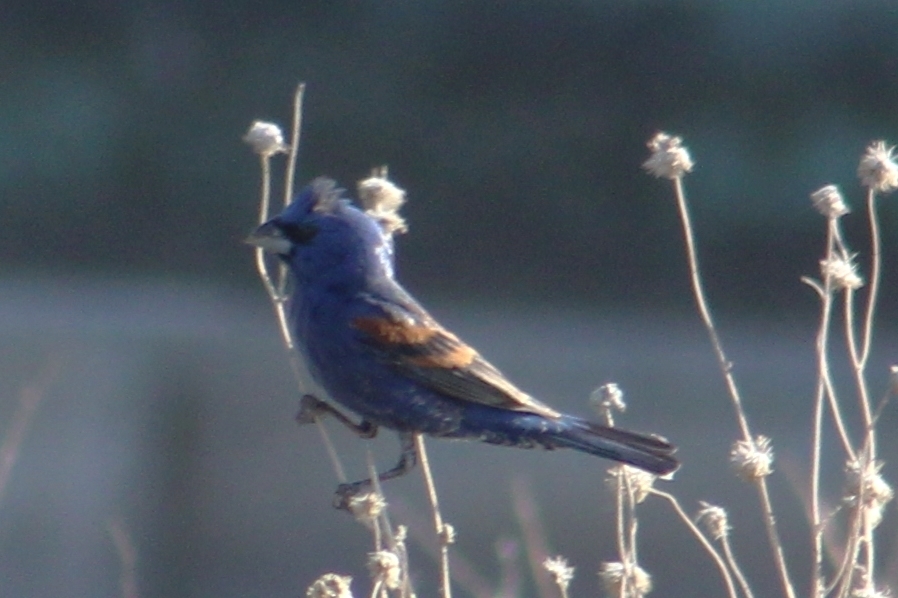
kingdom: Animalia
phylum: Chordata
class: Aves
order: Passeriformes
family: Cardinalidae
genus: Passerina
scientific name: Passerina caerulea
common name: Blue grosbeak
